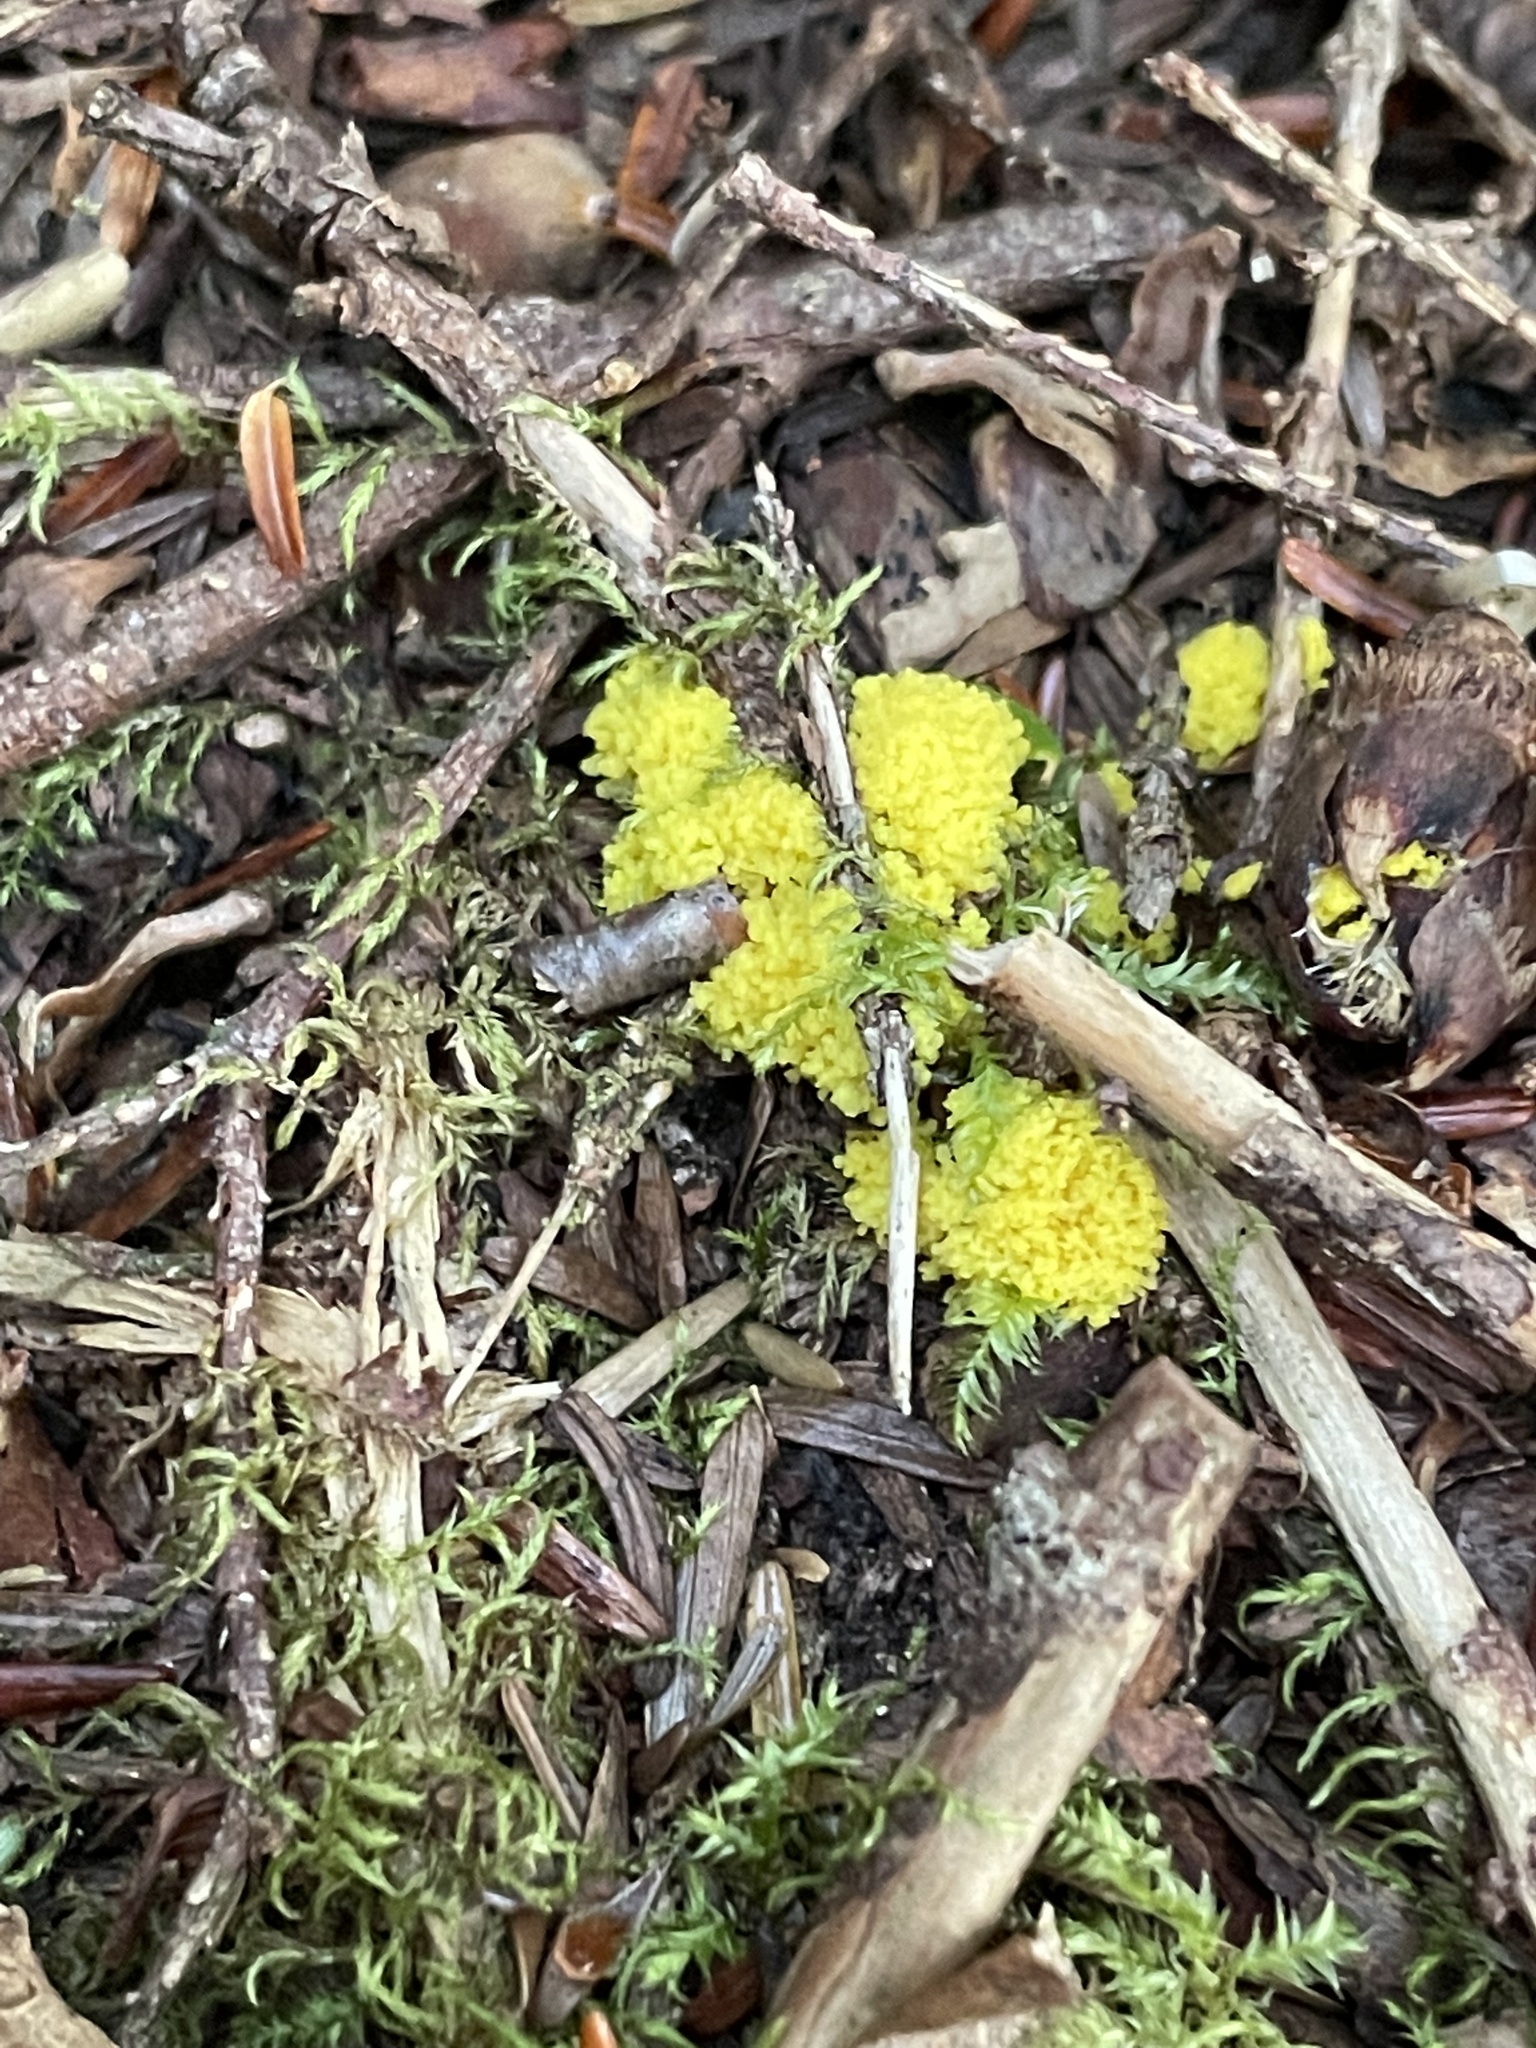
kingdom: Protozoa
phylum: Mycetozoa
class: Myxomycetes
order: Physarales
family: Physaraceae
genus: Fuligo
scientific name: Fuligo septica
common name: Dog vomit slime mold
